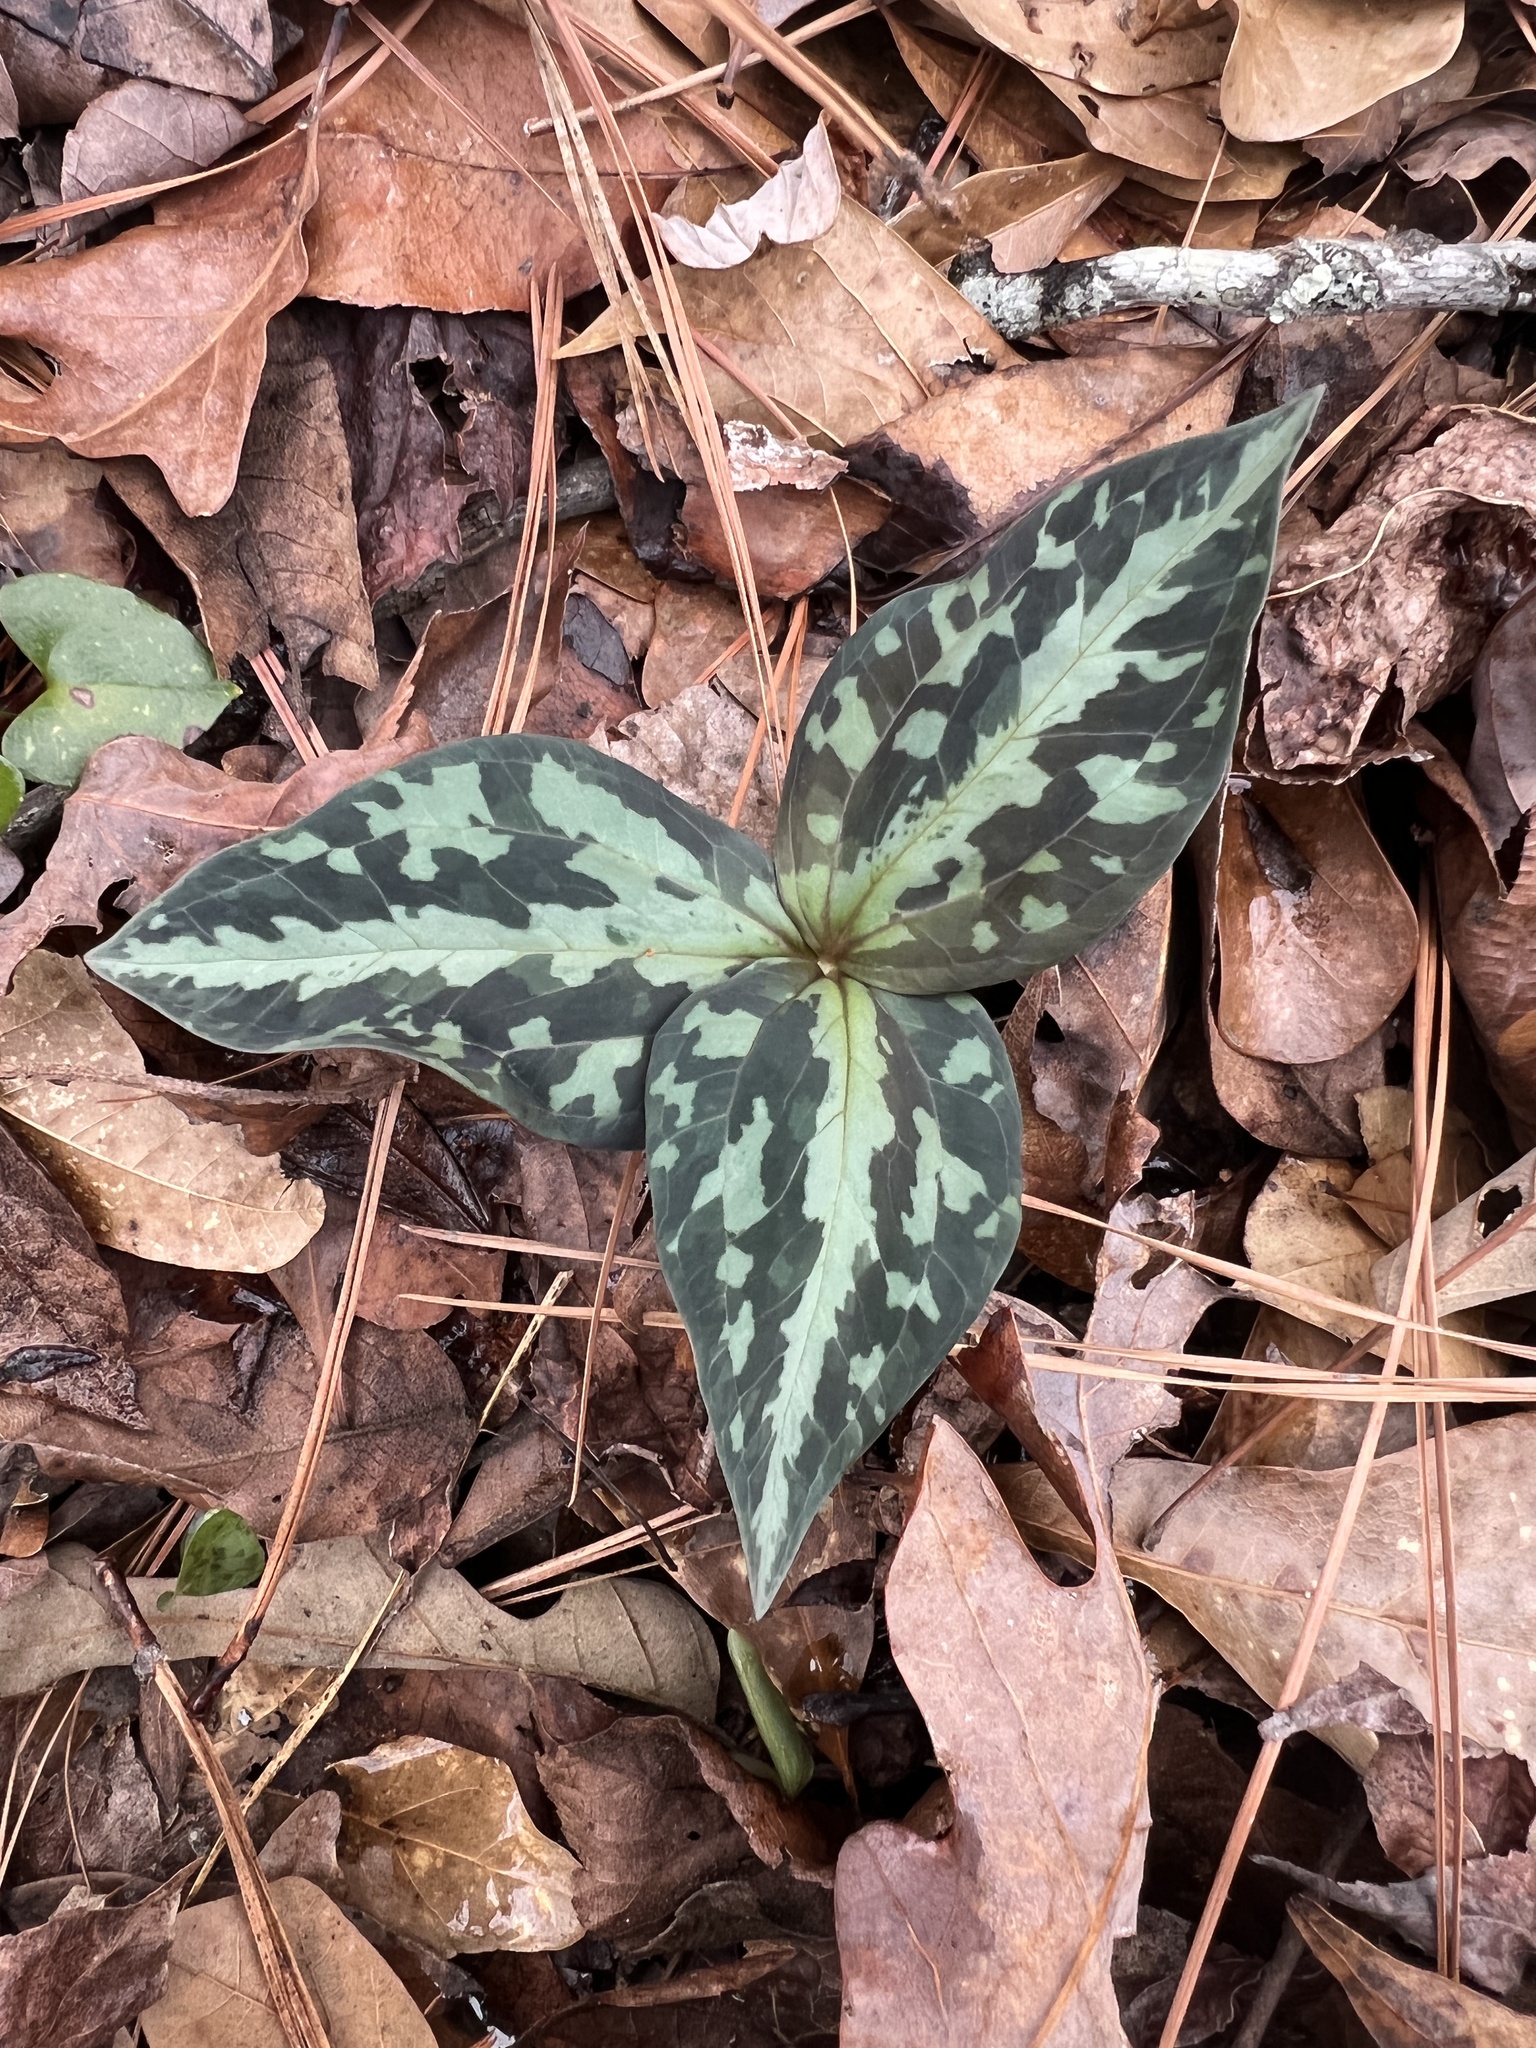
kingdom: Plantae
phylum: Tracheophyta
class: Liliopsida
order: Liliales
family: Melanthiaceae
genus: Trillium
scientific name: Trillium underwoodii
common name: Longbract wakerobin
